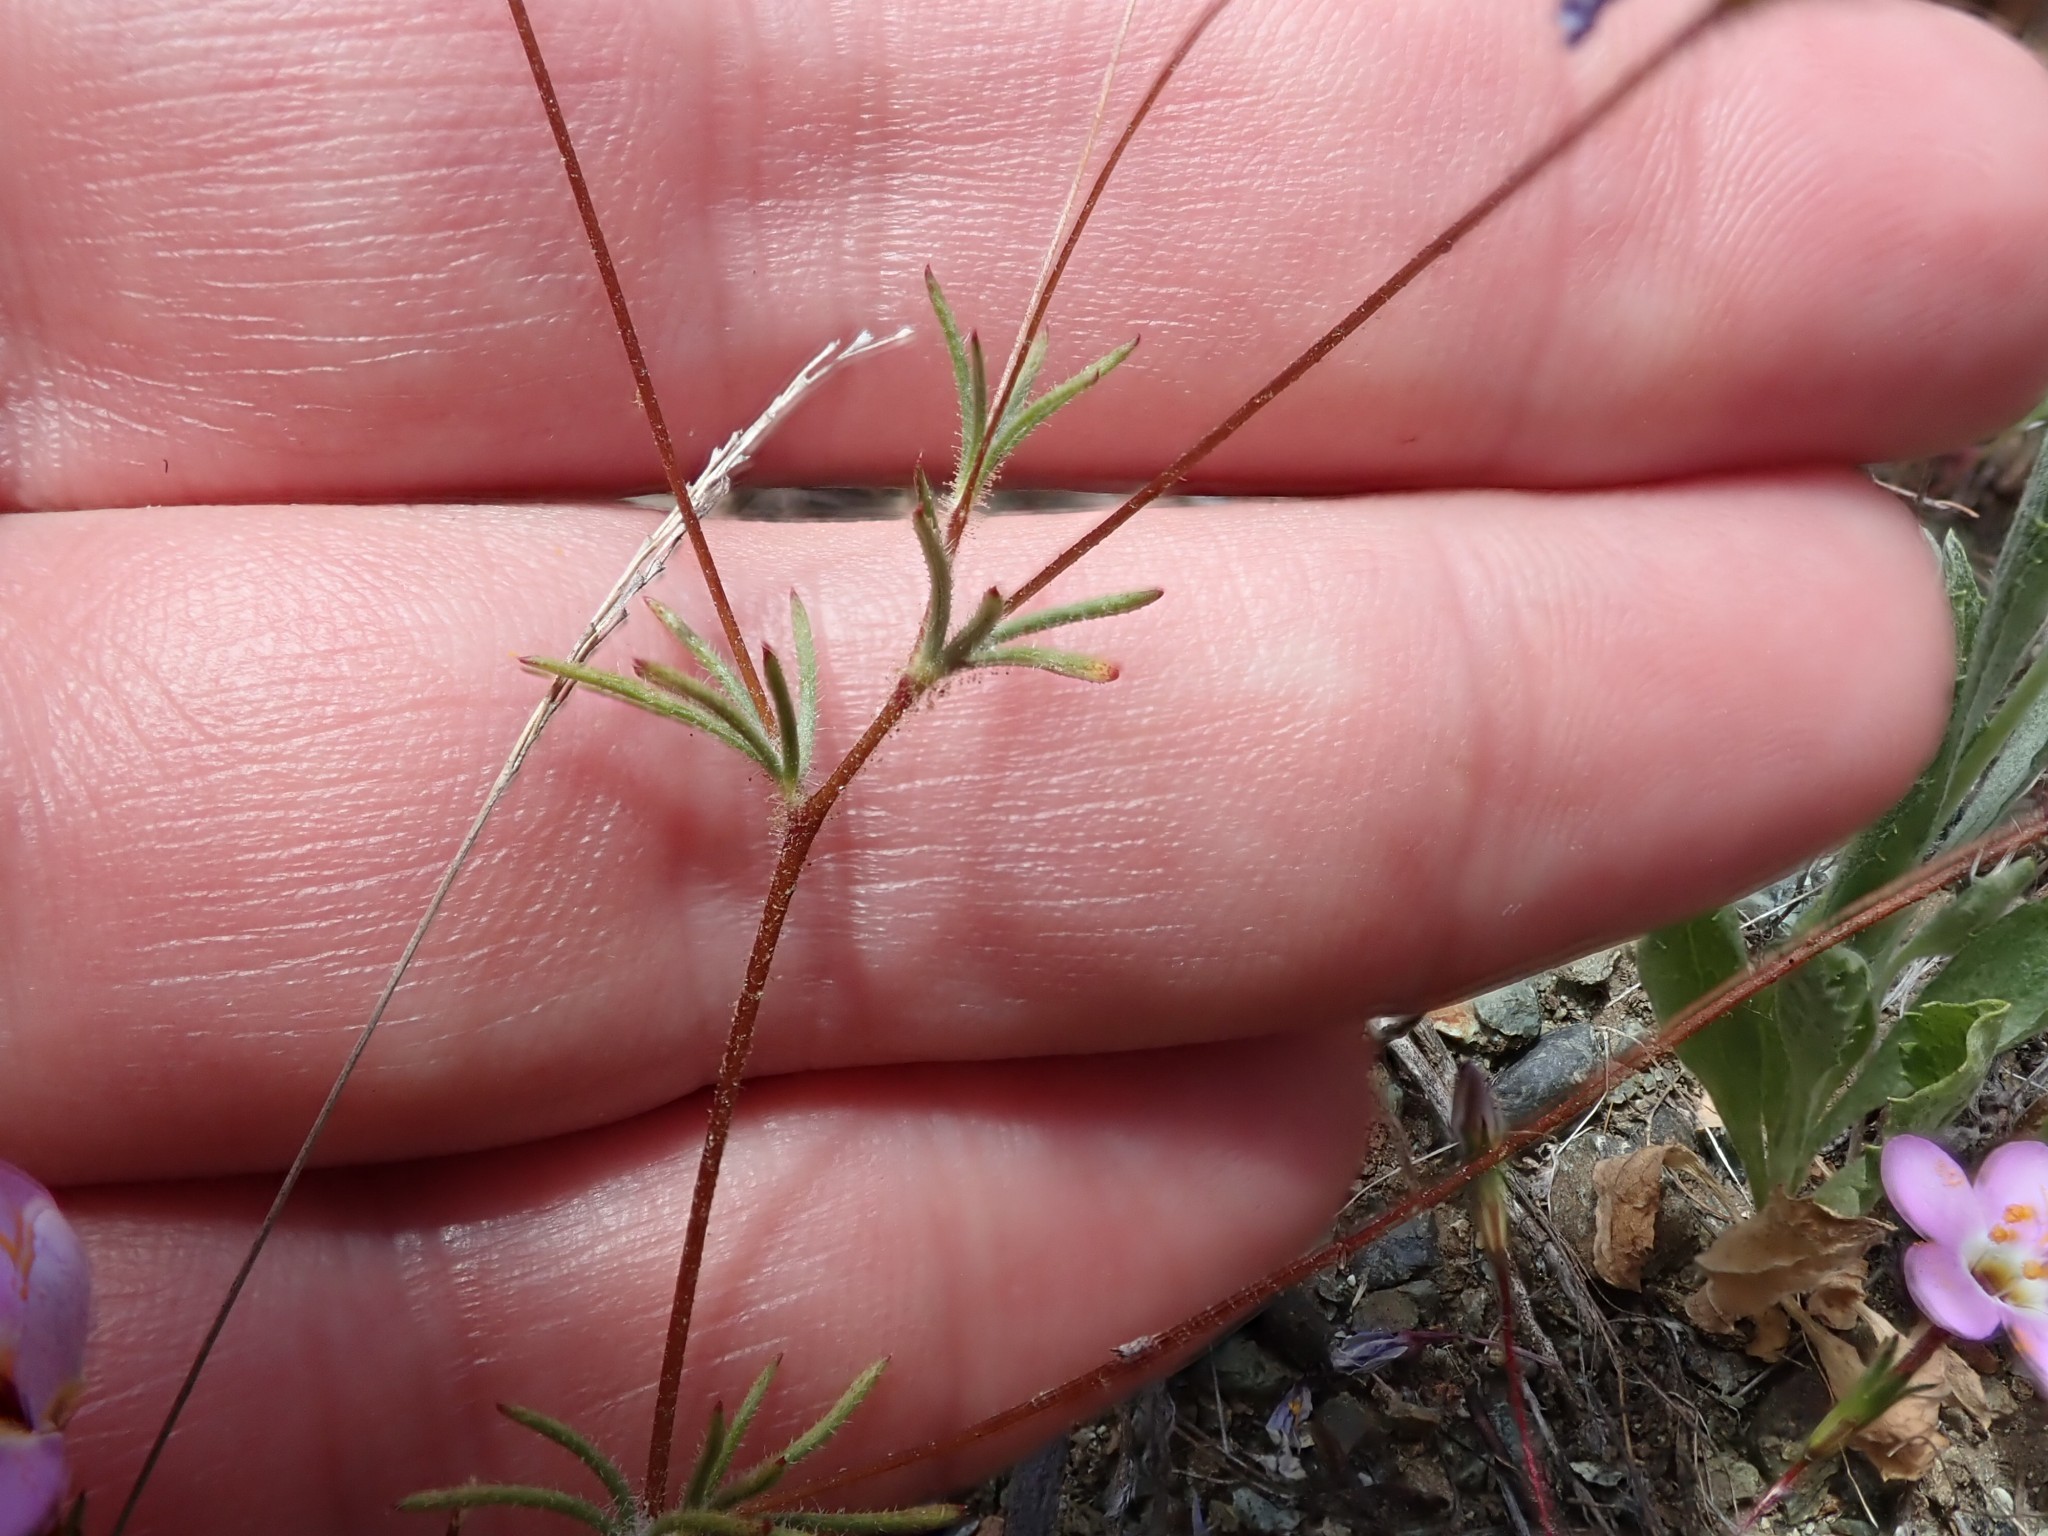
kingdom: Plantae
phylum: Tracheophyta
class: Magnoliopsida
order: Ericales
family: Polemoniaceae
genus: Leptosiphon
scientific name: Leptosiphon ambiguus
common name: Serpentine linanthus
